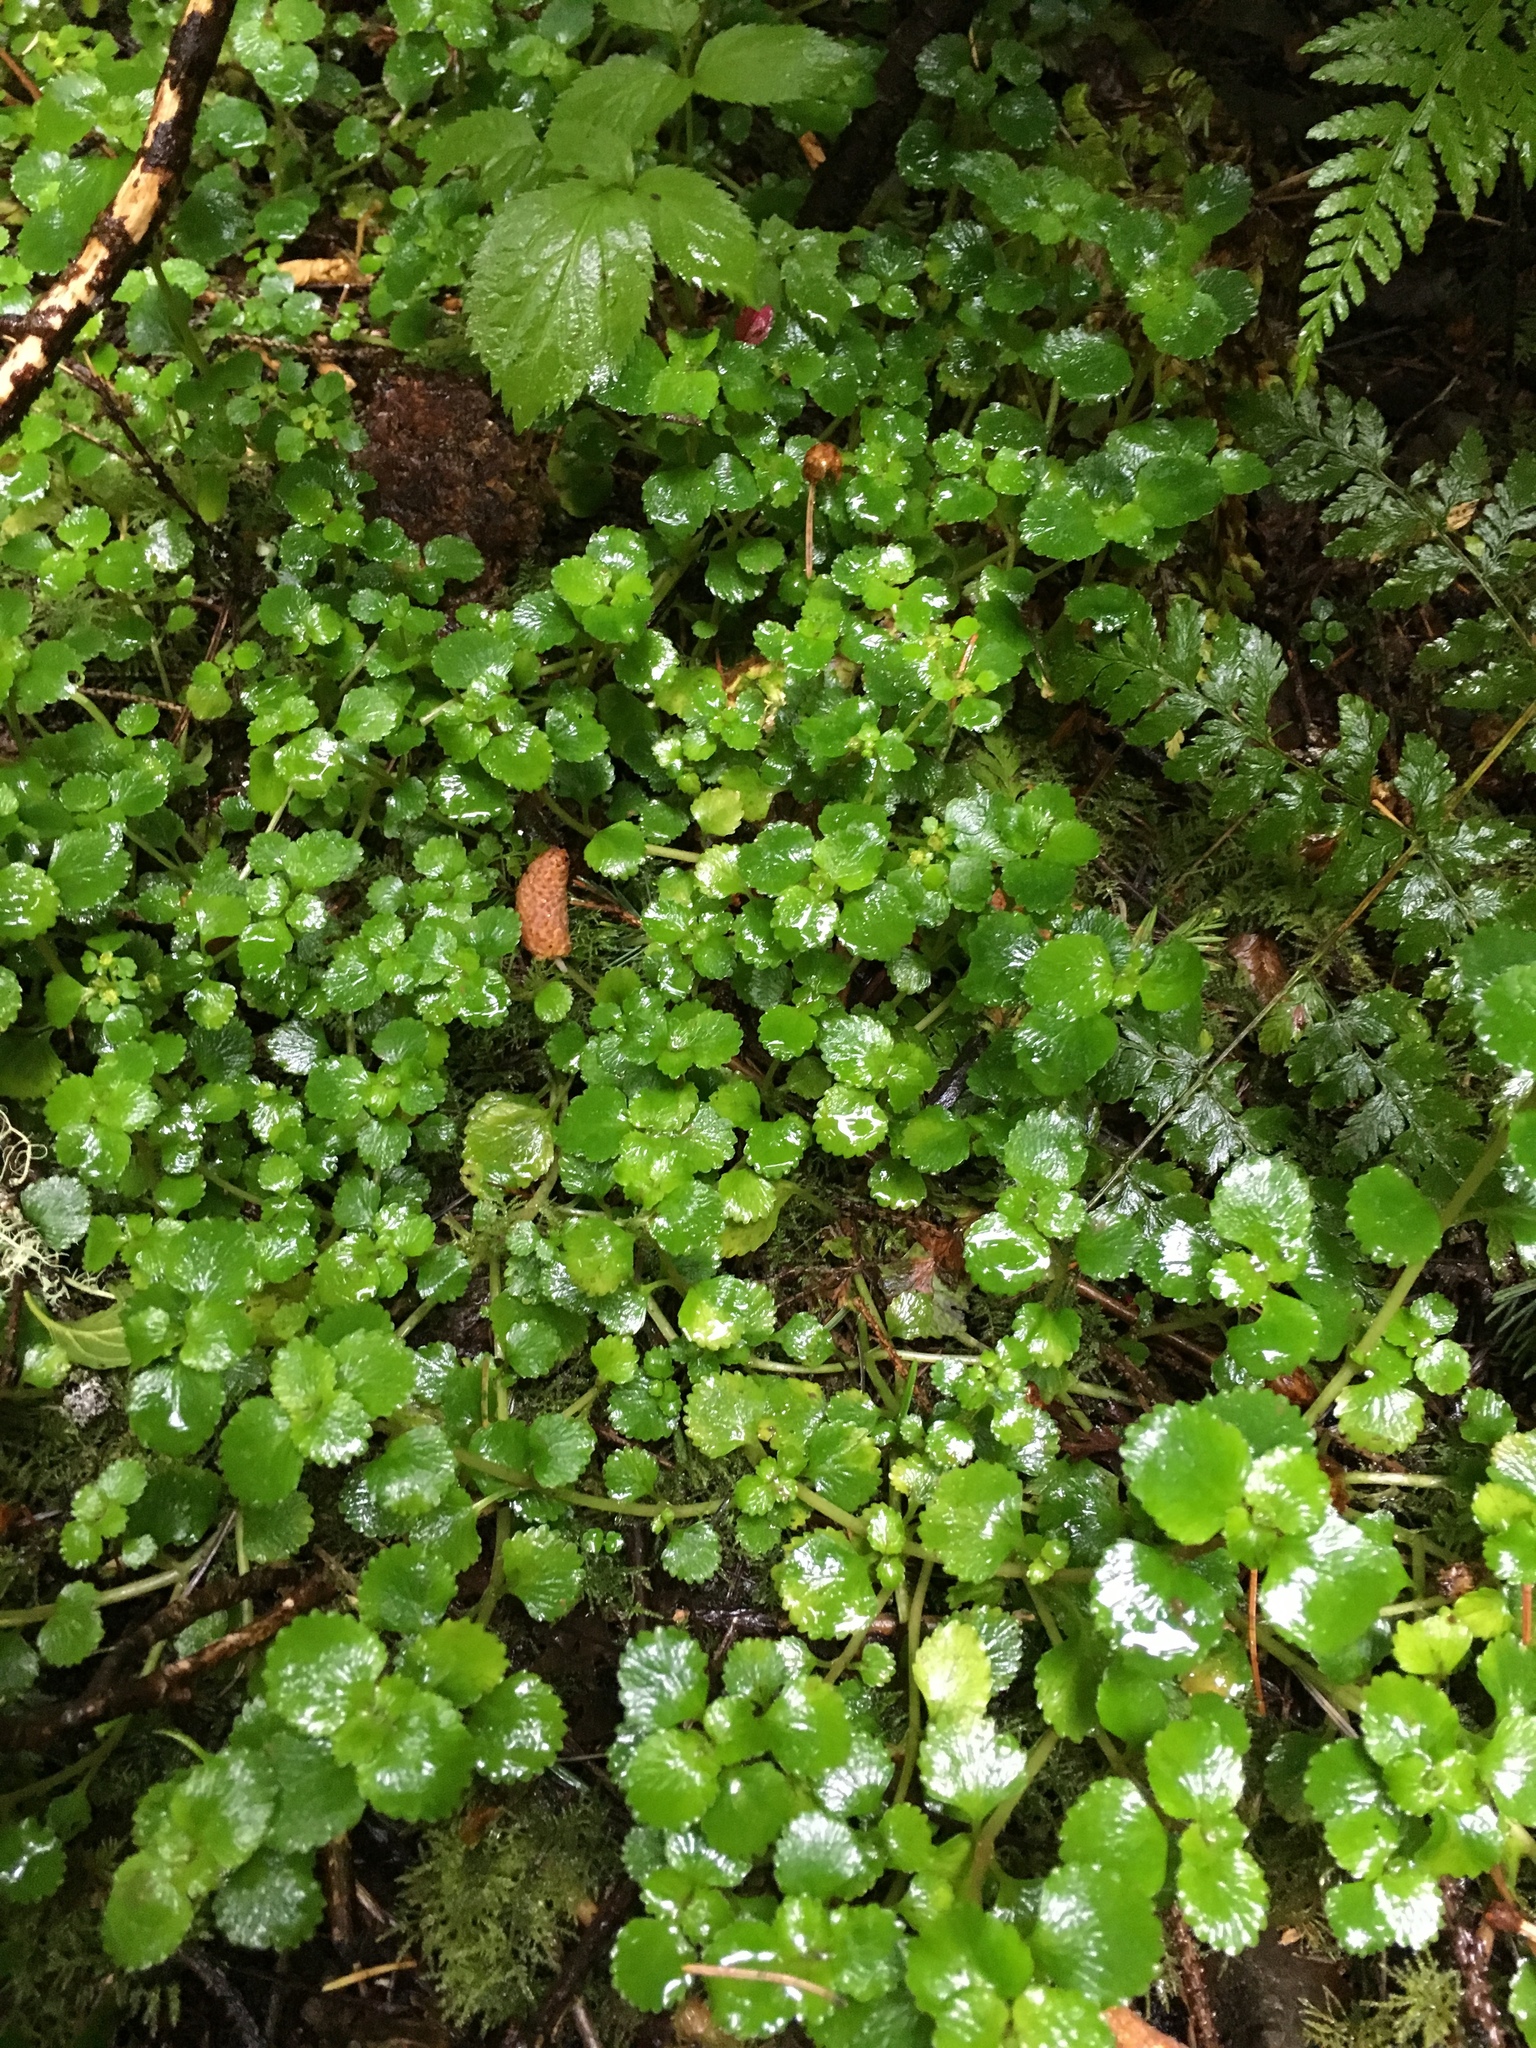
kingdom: Plantae
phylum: Tracheophyta
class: Magnoliopsida
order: Saxifragales
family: Saxifragaceae
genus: Chrysosplenium
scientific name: Chrysosplenium glechomifolium
